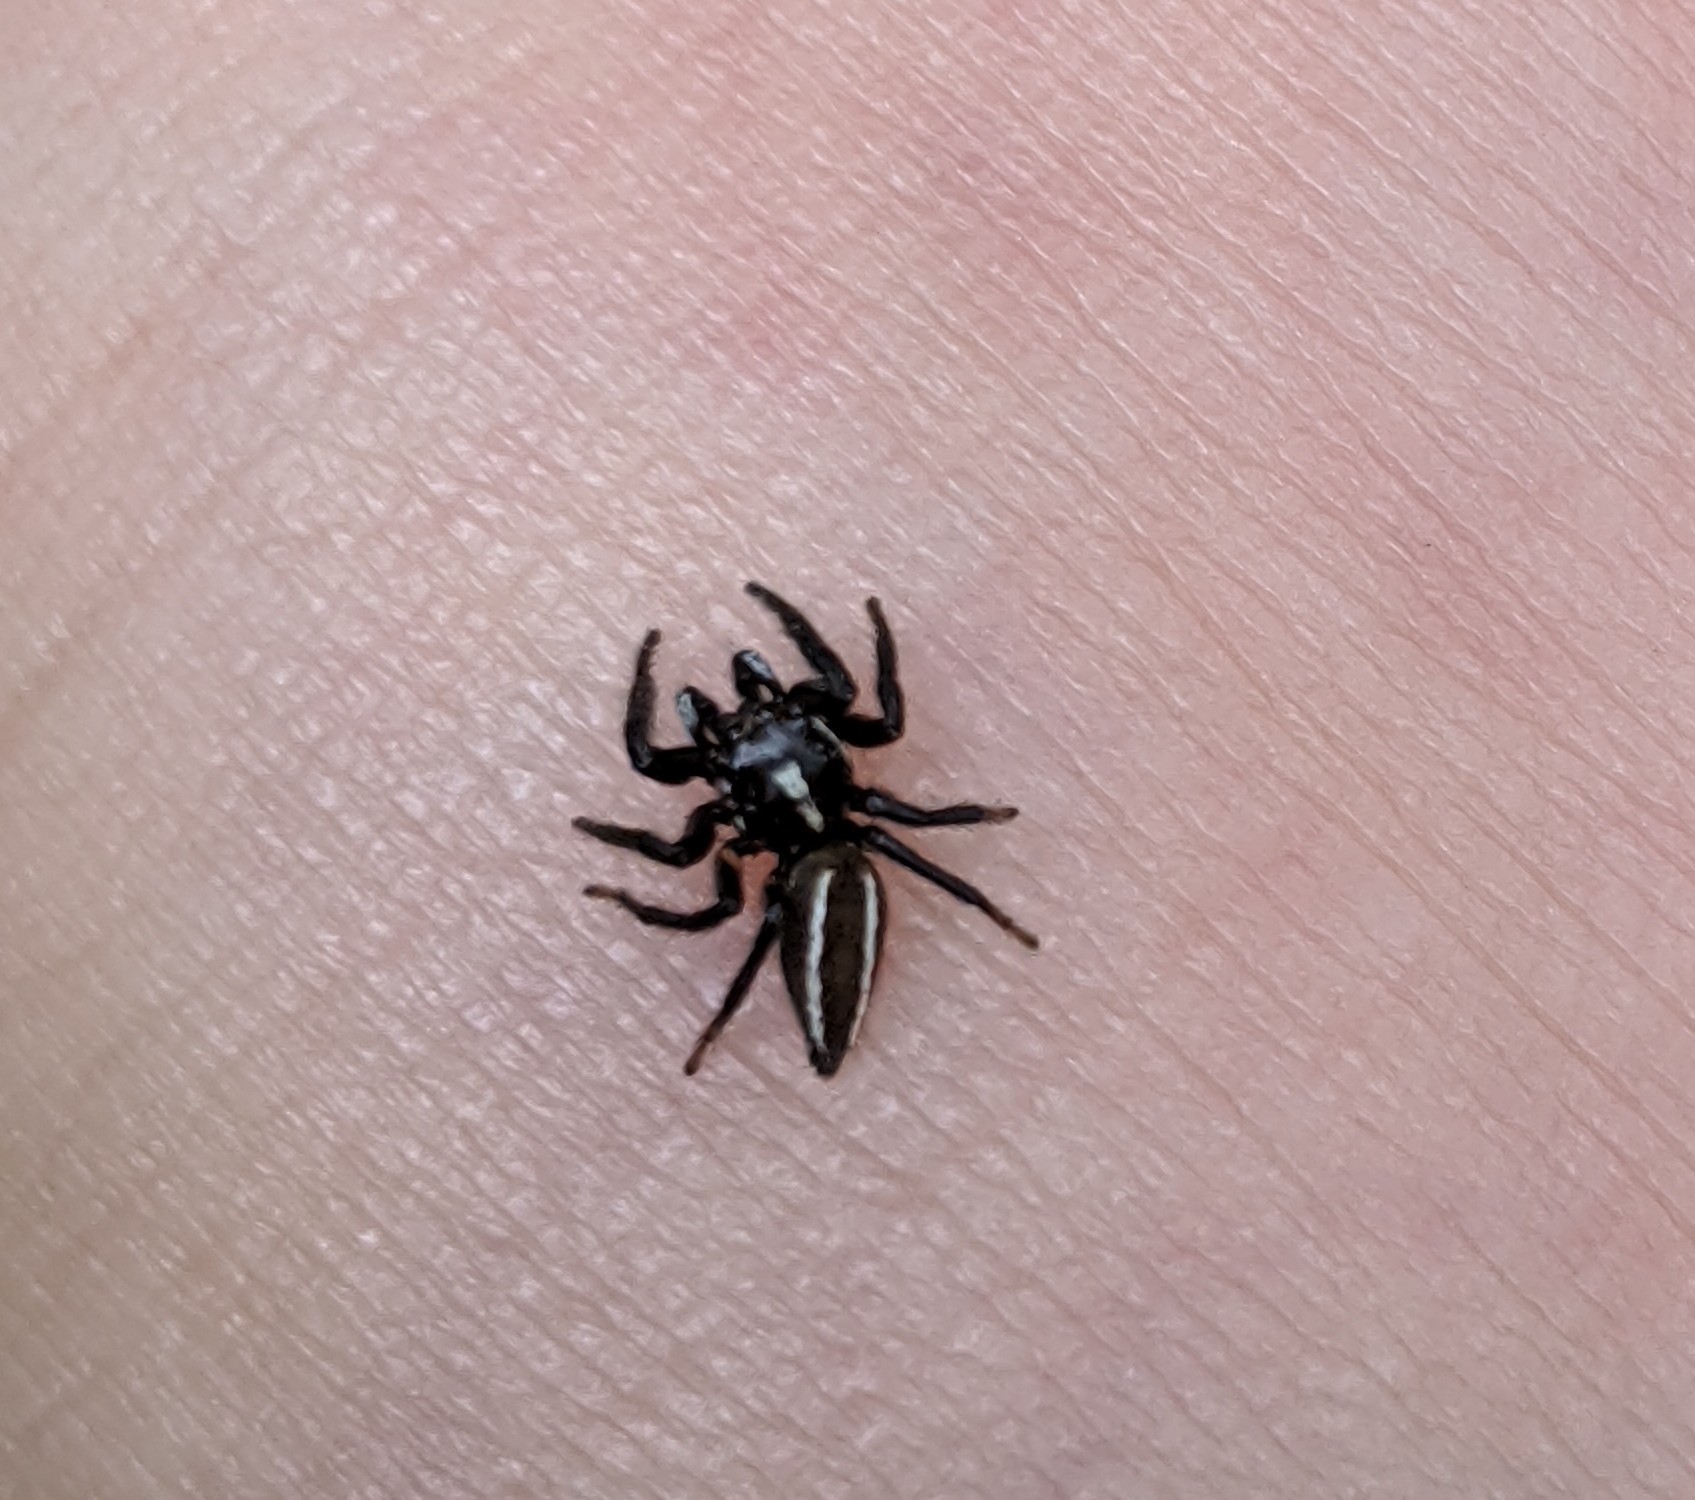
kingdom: Animalia
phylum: Arthropoda
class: Arachnida
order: Araneae
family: Salticidae
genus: Colonus
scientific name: Colonus sylvanus
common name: Jumping spiders
